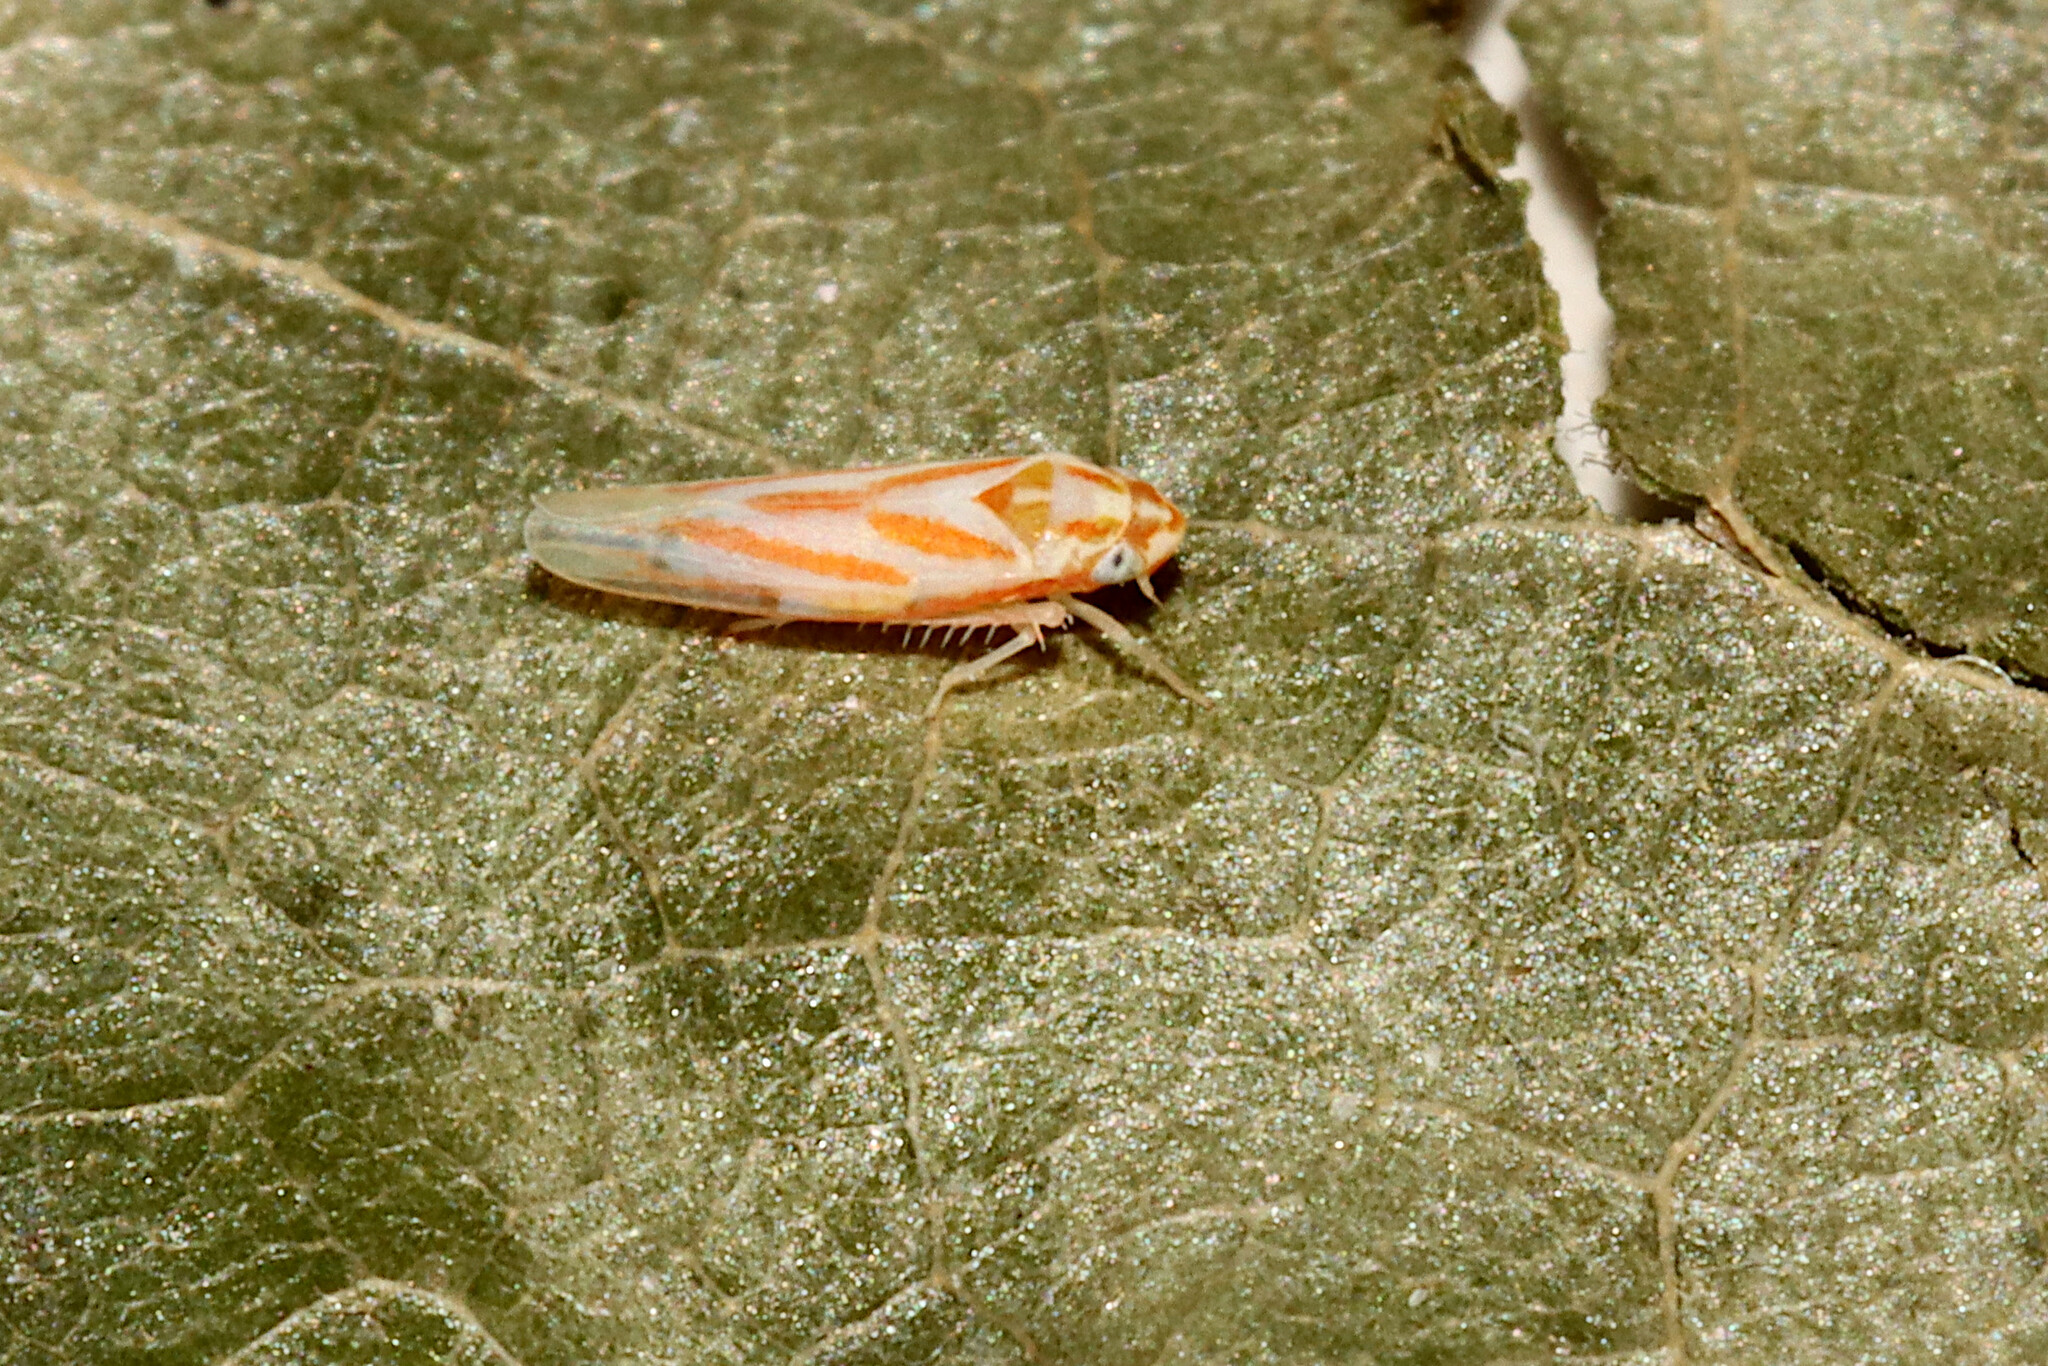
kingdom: Animalia
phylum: Arthropoda
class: Insecta
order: Hemiptera
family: Cicadellidae
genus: Erythridula
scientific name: Erythridula
